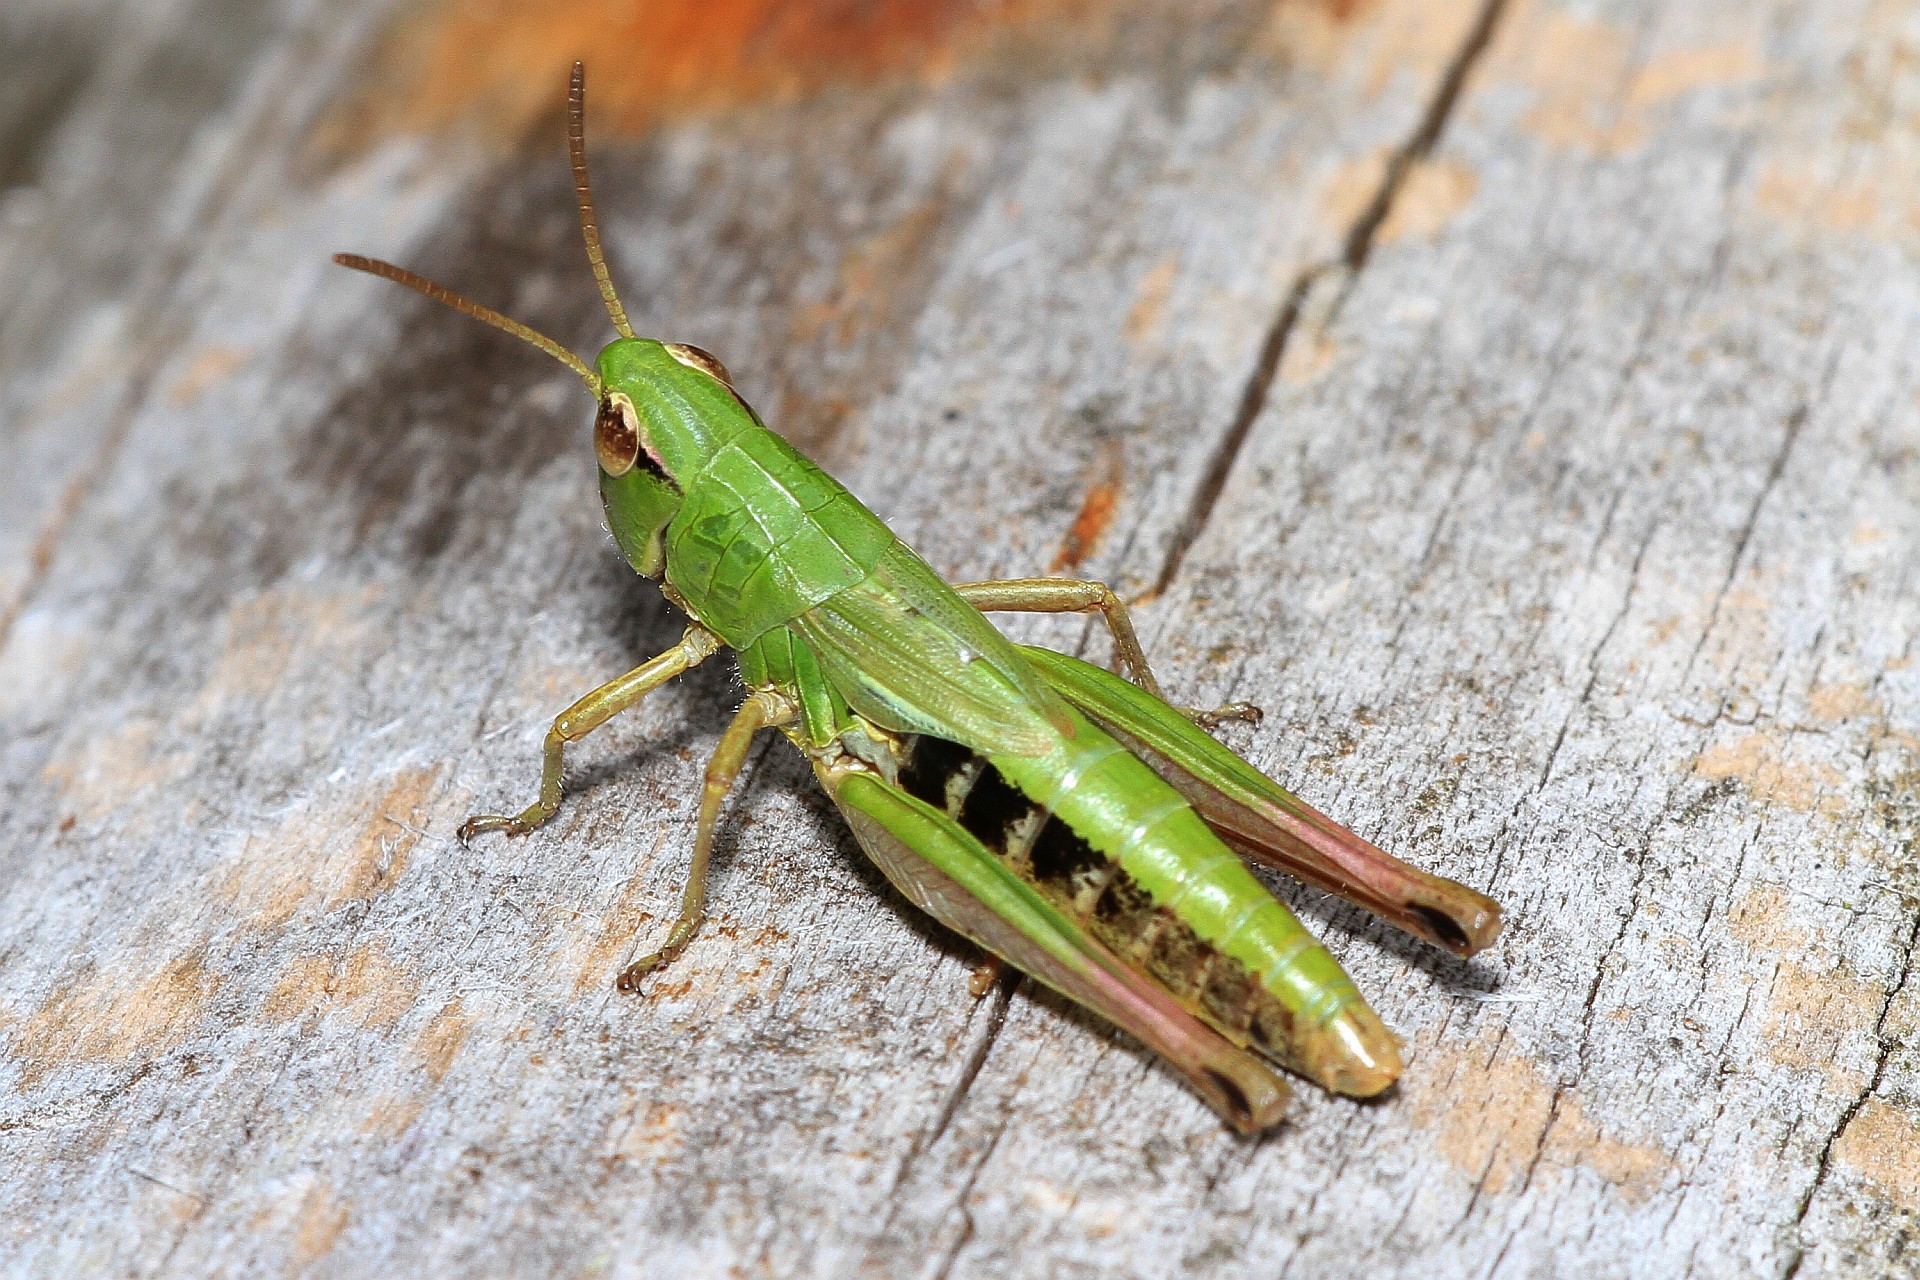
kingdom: Animalia
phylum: Arthropoda
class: Insecta
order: Orthoptera
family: Acrididae
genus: Pseudochorthippus
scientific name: Pseudochorthippus parallelus
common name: Meadow grasshopper
